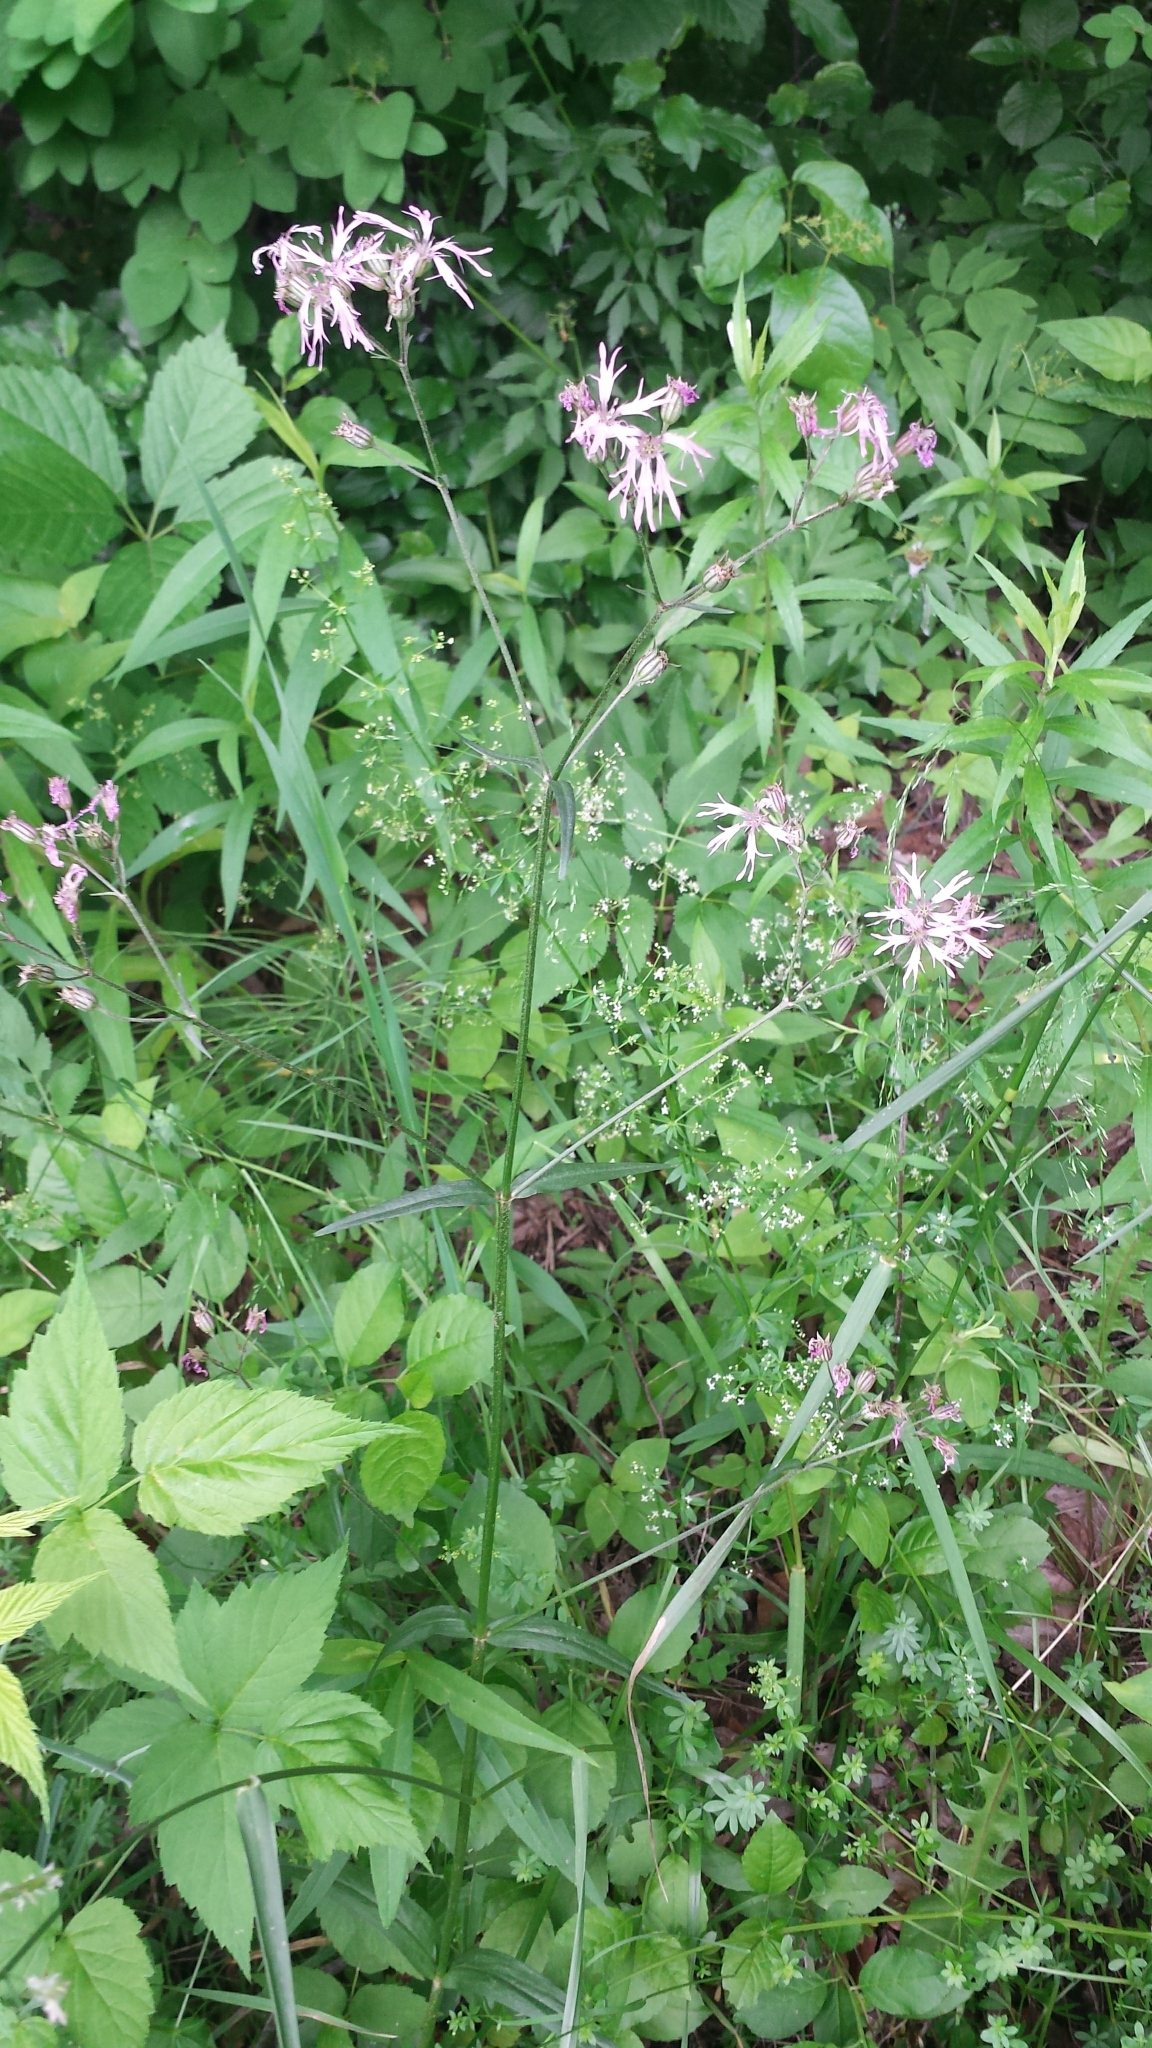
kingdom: Plantae
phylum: Tracheophyta
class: Magnoliopsida
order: Caryophyllales
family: Caryophyllaceae
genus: Silene
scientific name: Silene flos-cuculi
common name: Ragged-robin
